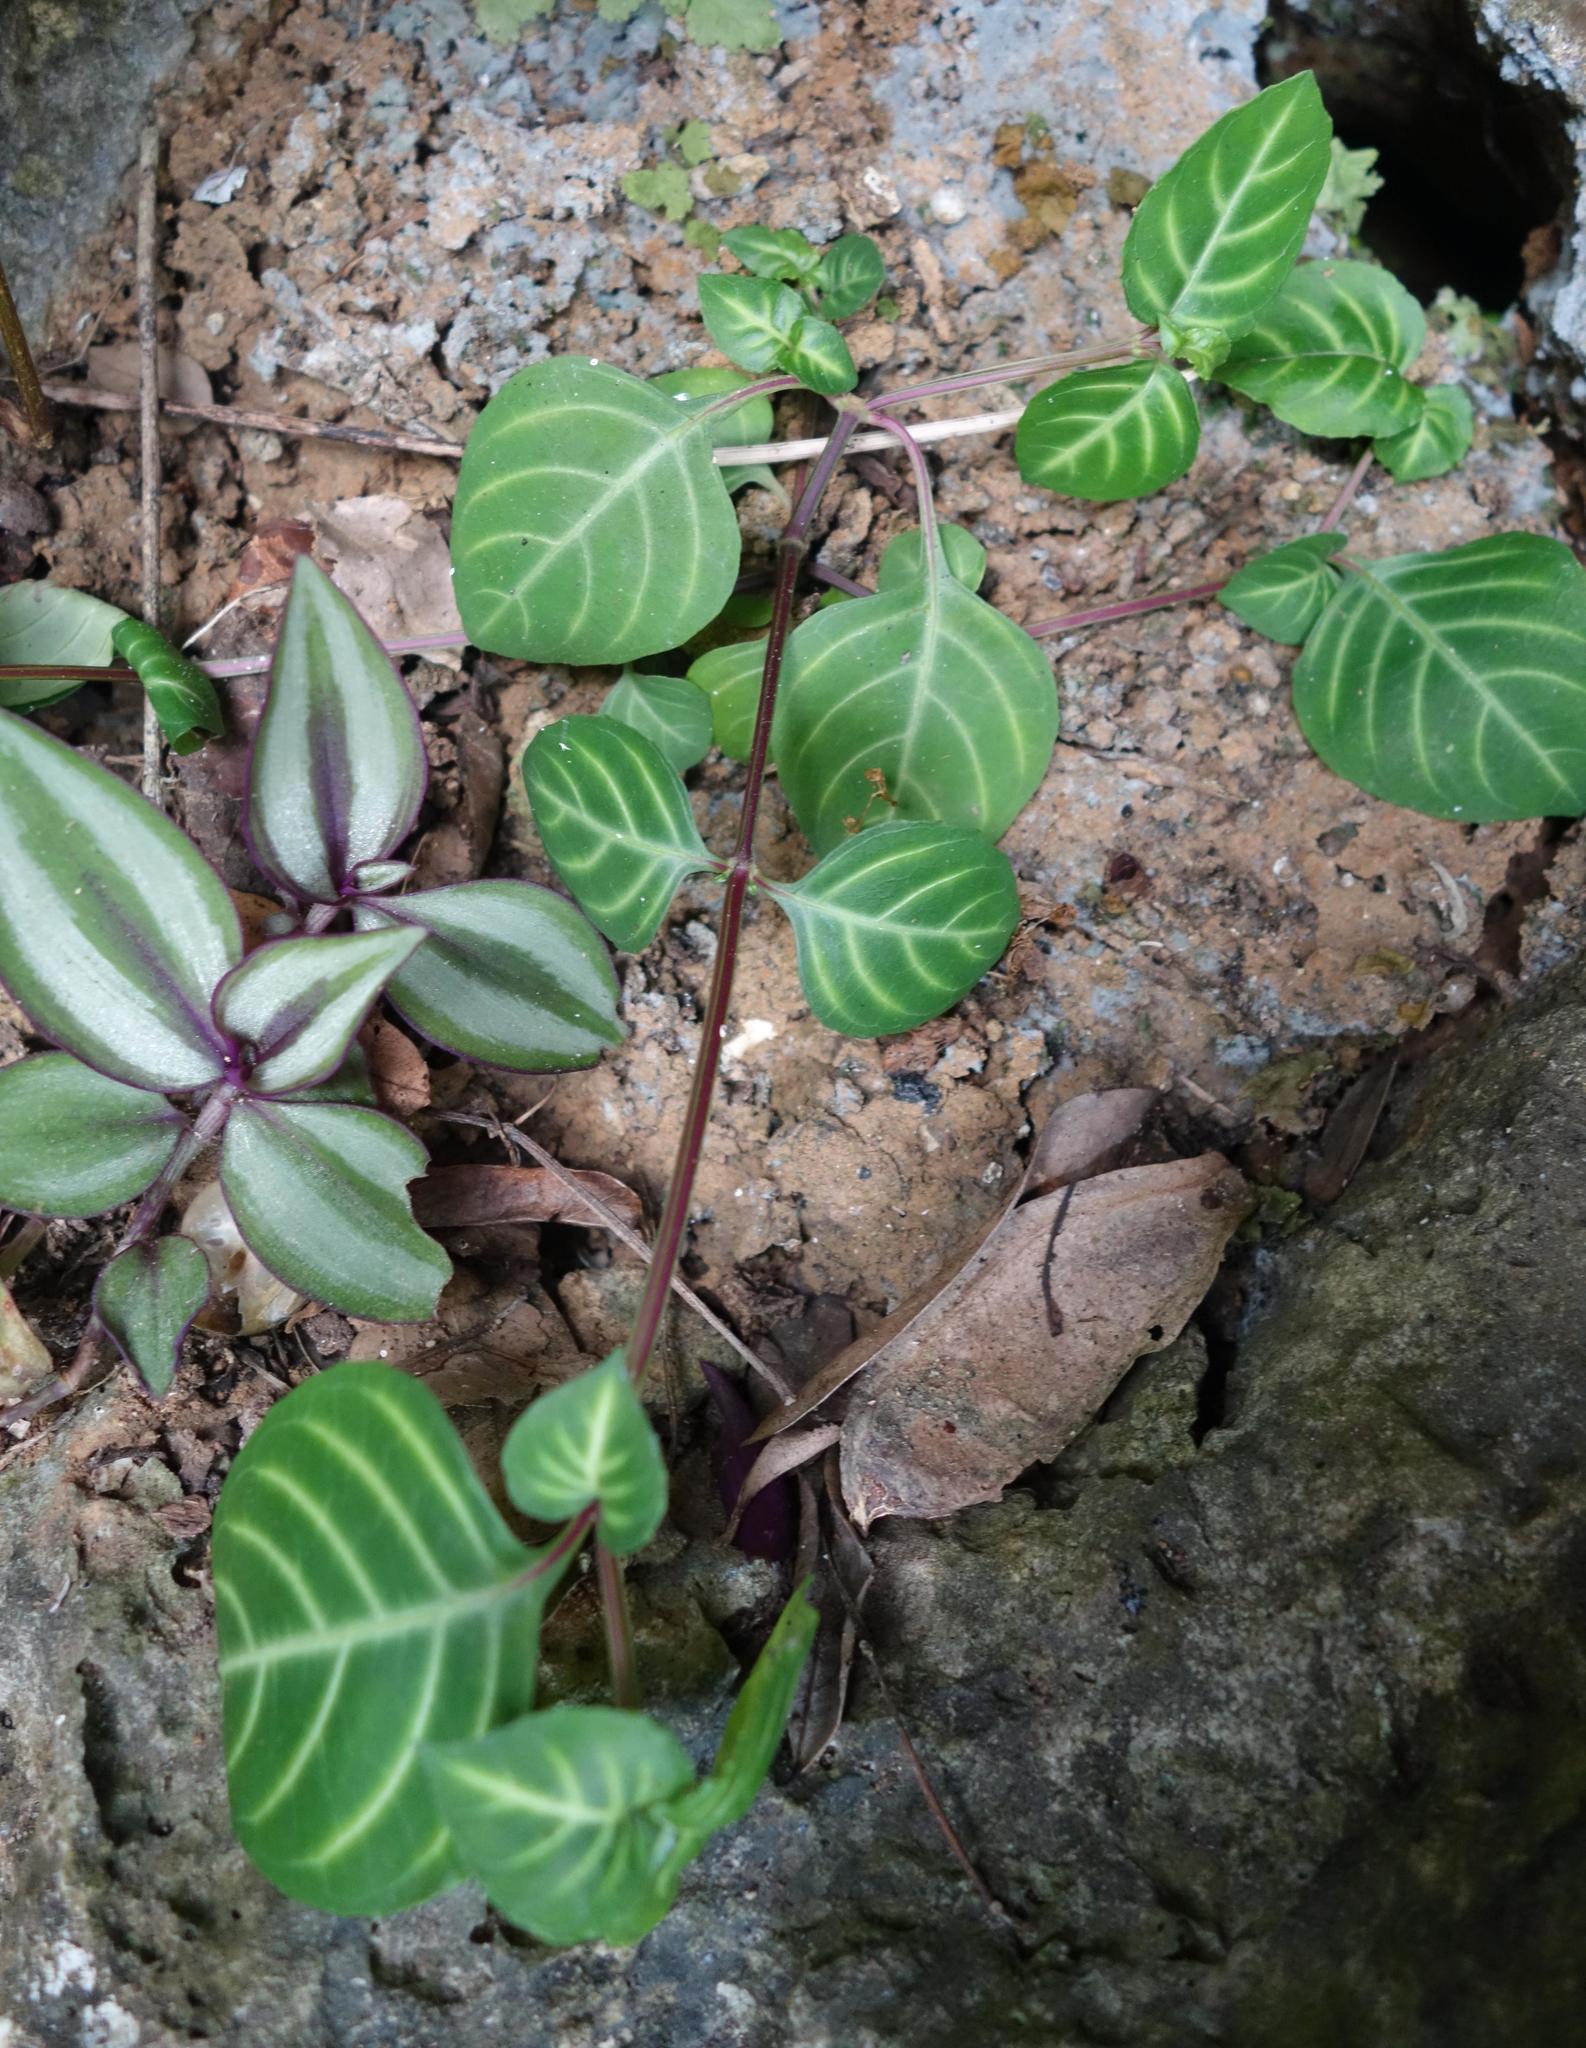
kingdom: Plantae
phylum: Tracheophyta
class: Magnoliopsida
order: Lamiales
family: Acanthaceae
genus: Lepidagathis
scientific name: Lepidagathis inaequalis
